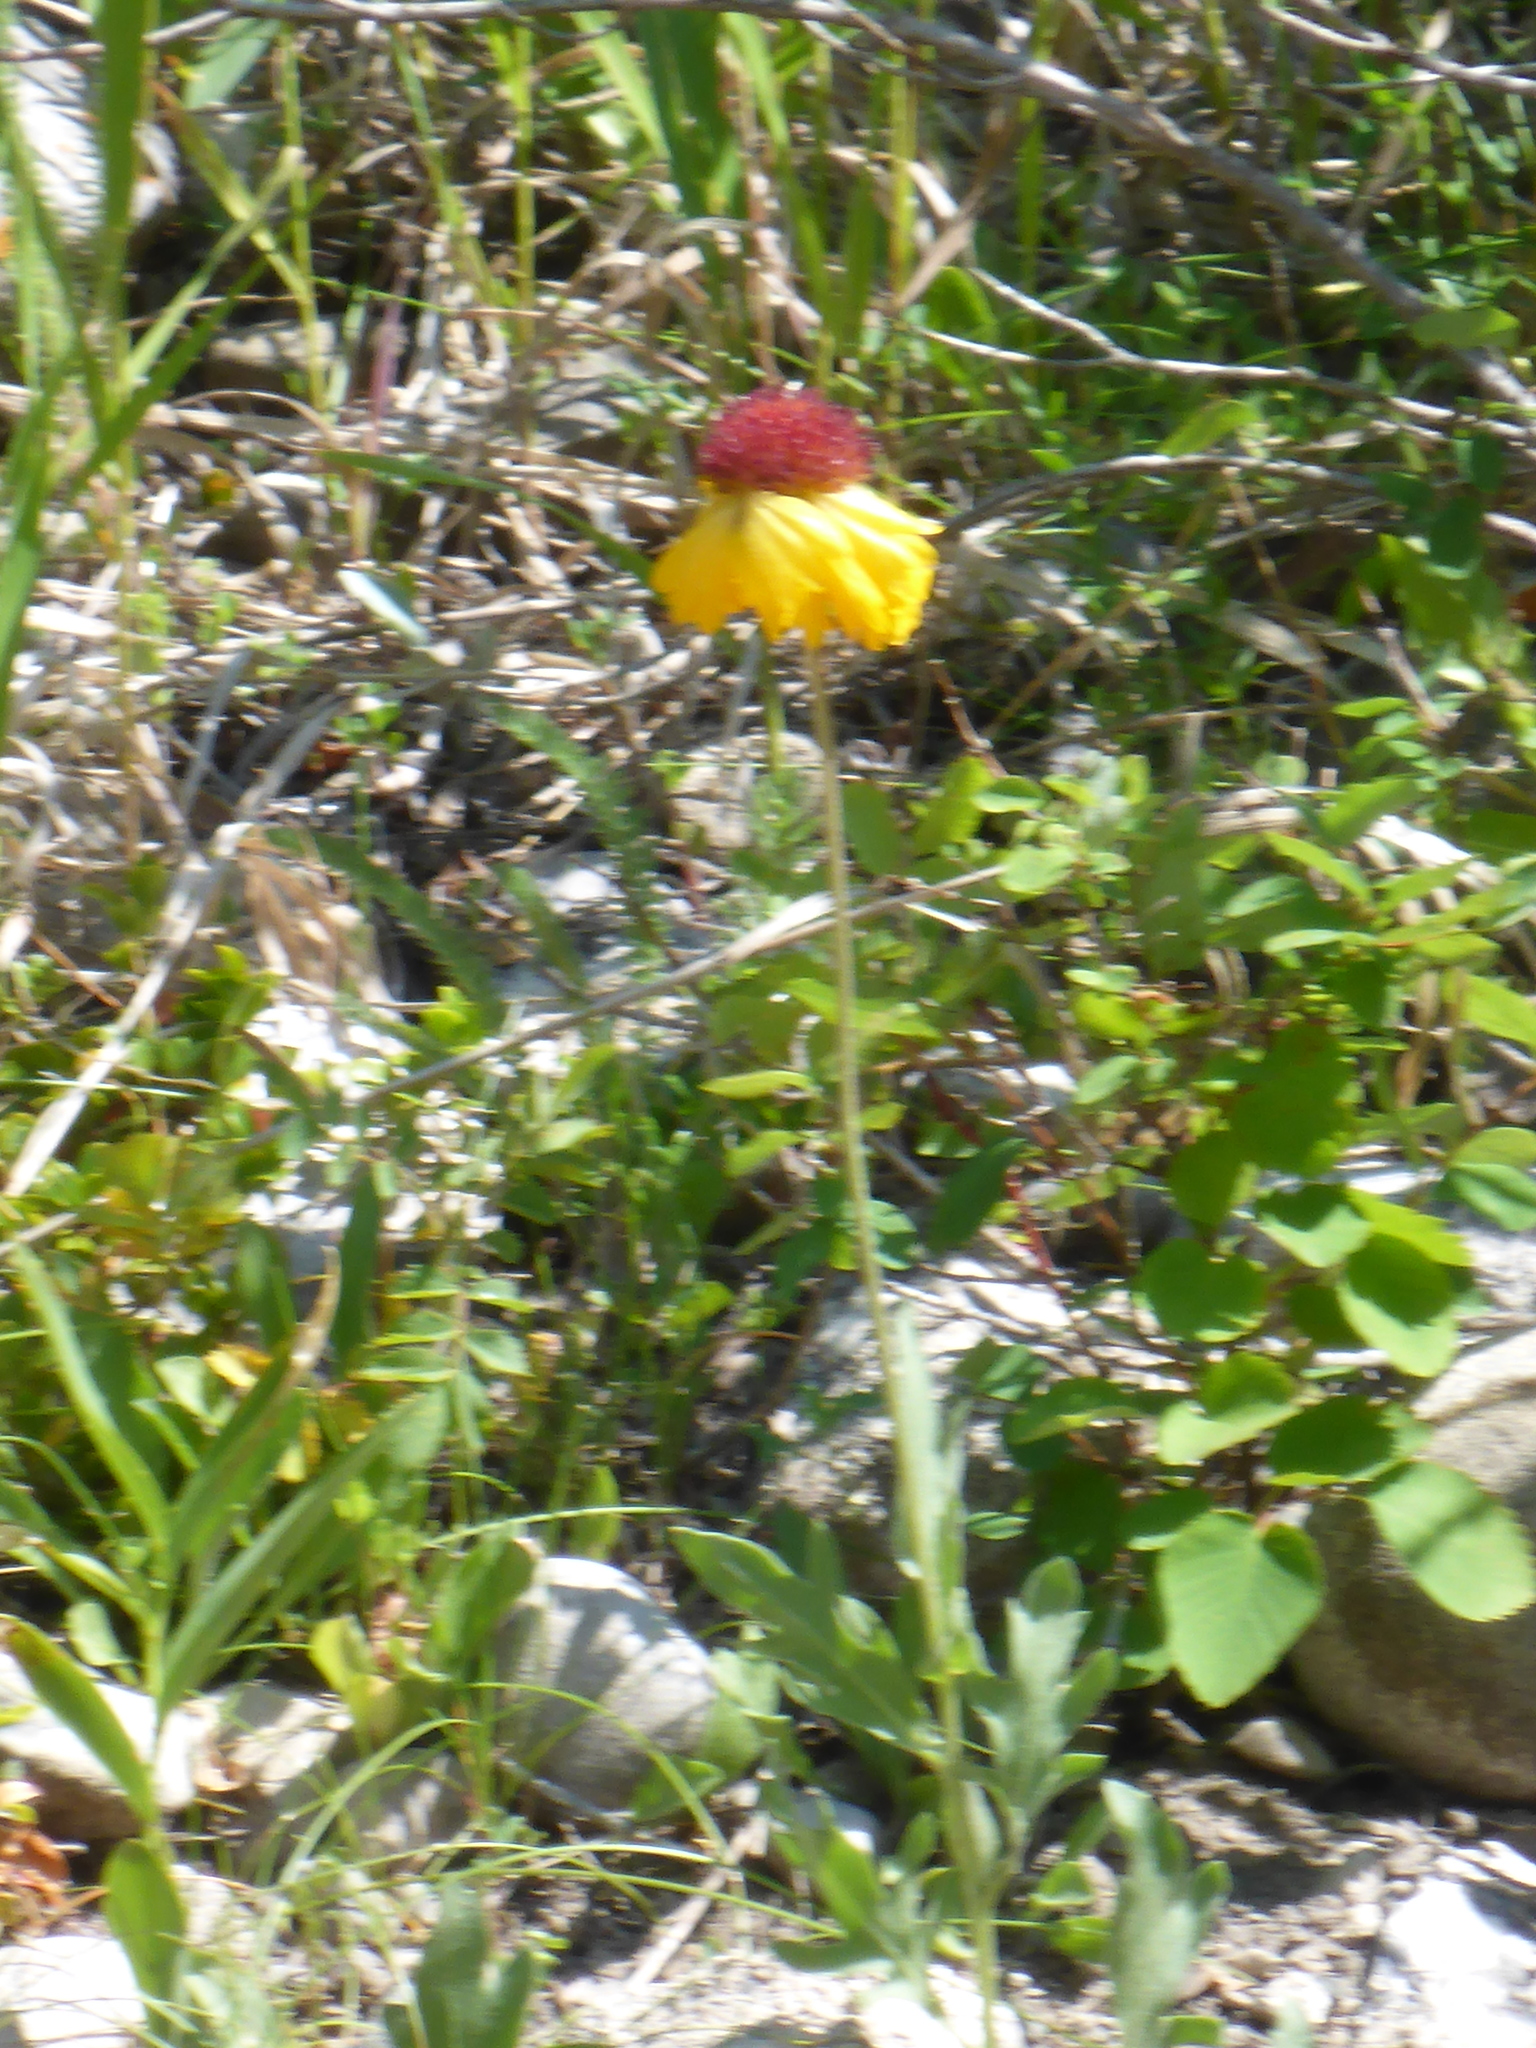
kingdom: Plantae
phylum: Tracheophyta
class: Magnoliopsida
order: Asterales
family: Asteraceae
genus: Gaillardia
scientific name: Gaillardia aristata
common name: Blanket-flower
